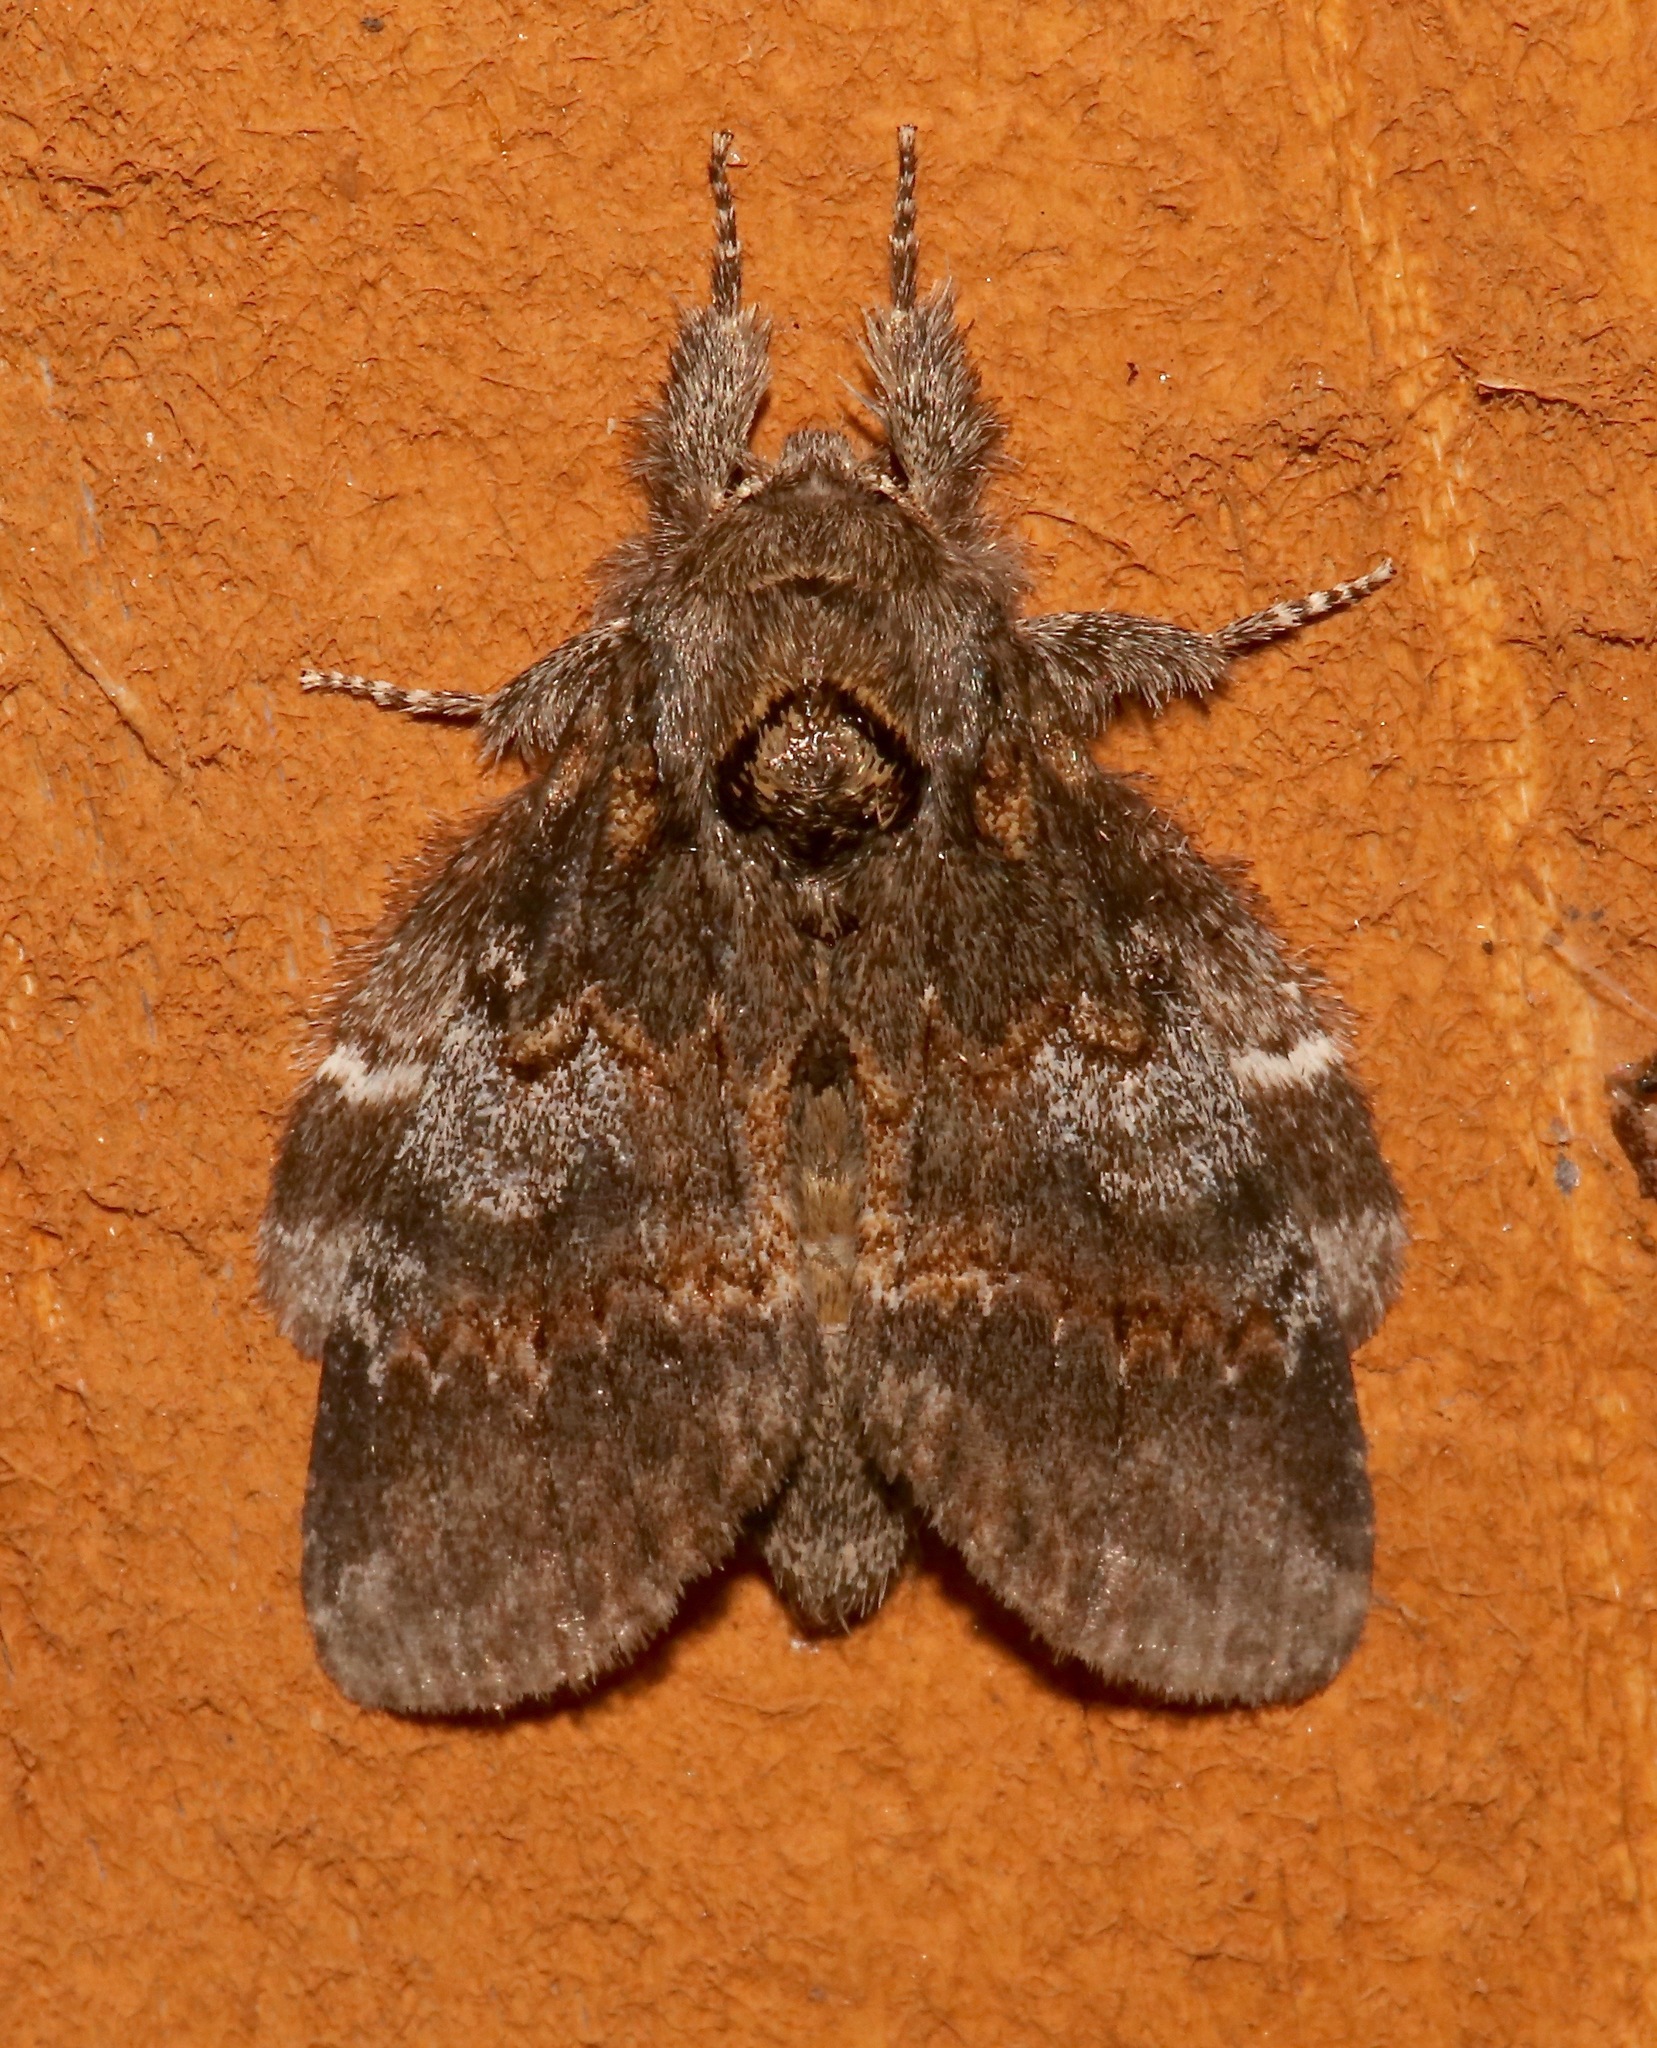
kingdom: Animalia
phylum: Arthropoda
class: Insecta
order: Lepidoptera
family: Notodontidae
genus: Peridea
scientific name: Peridea angulosa
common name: Angulose prominent
